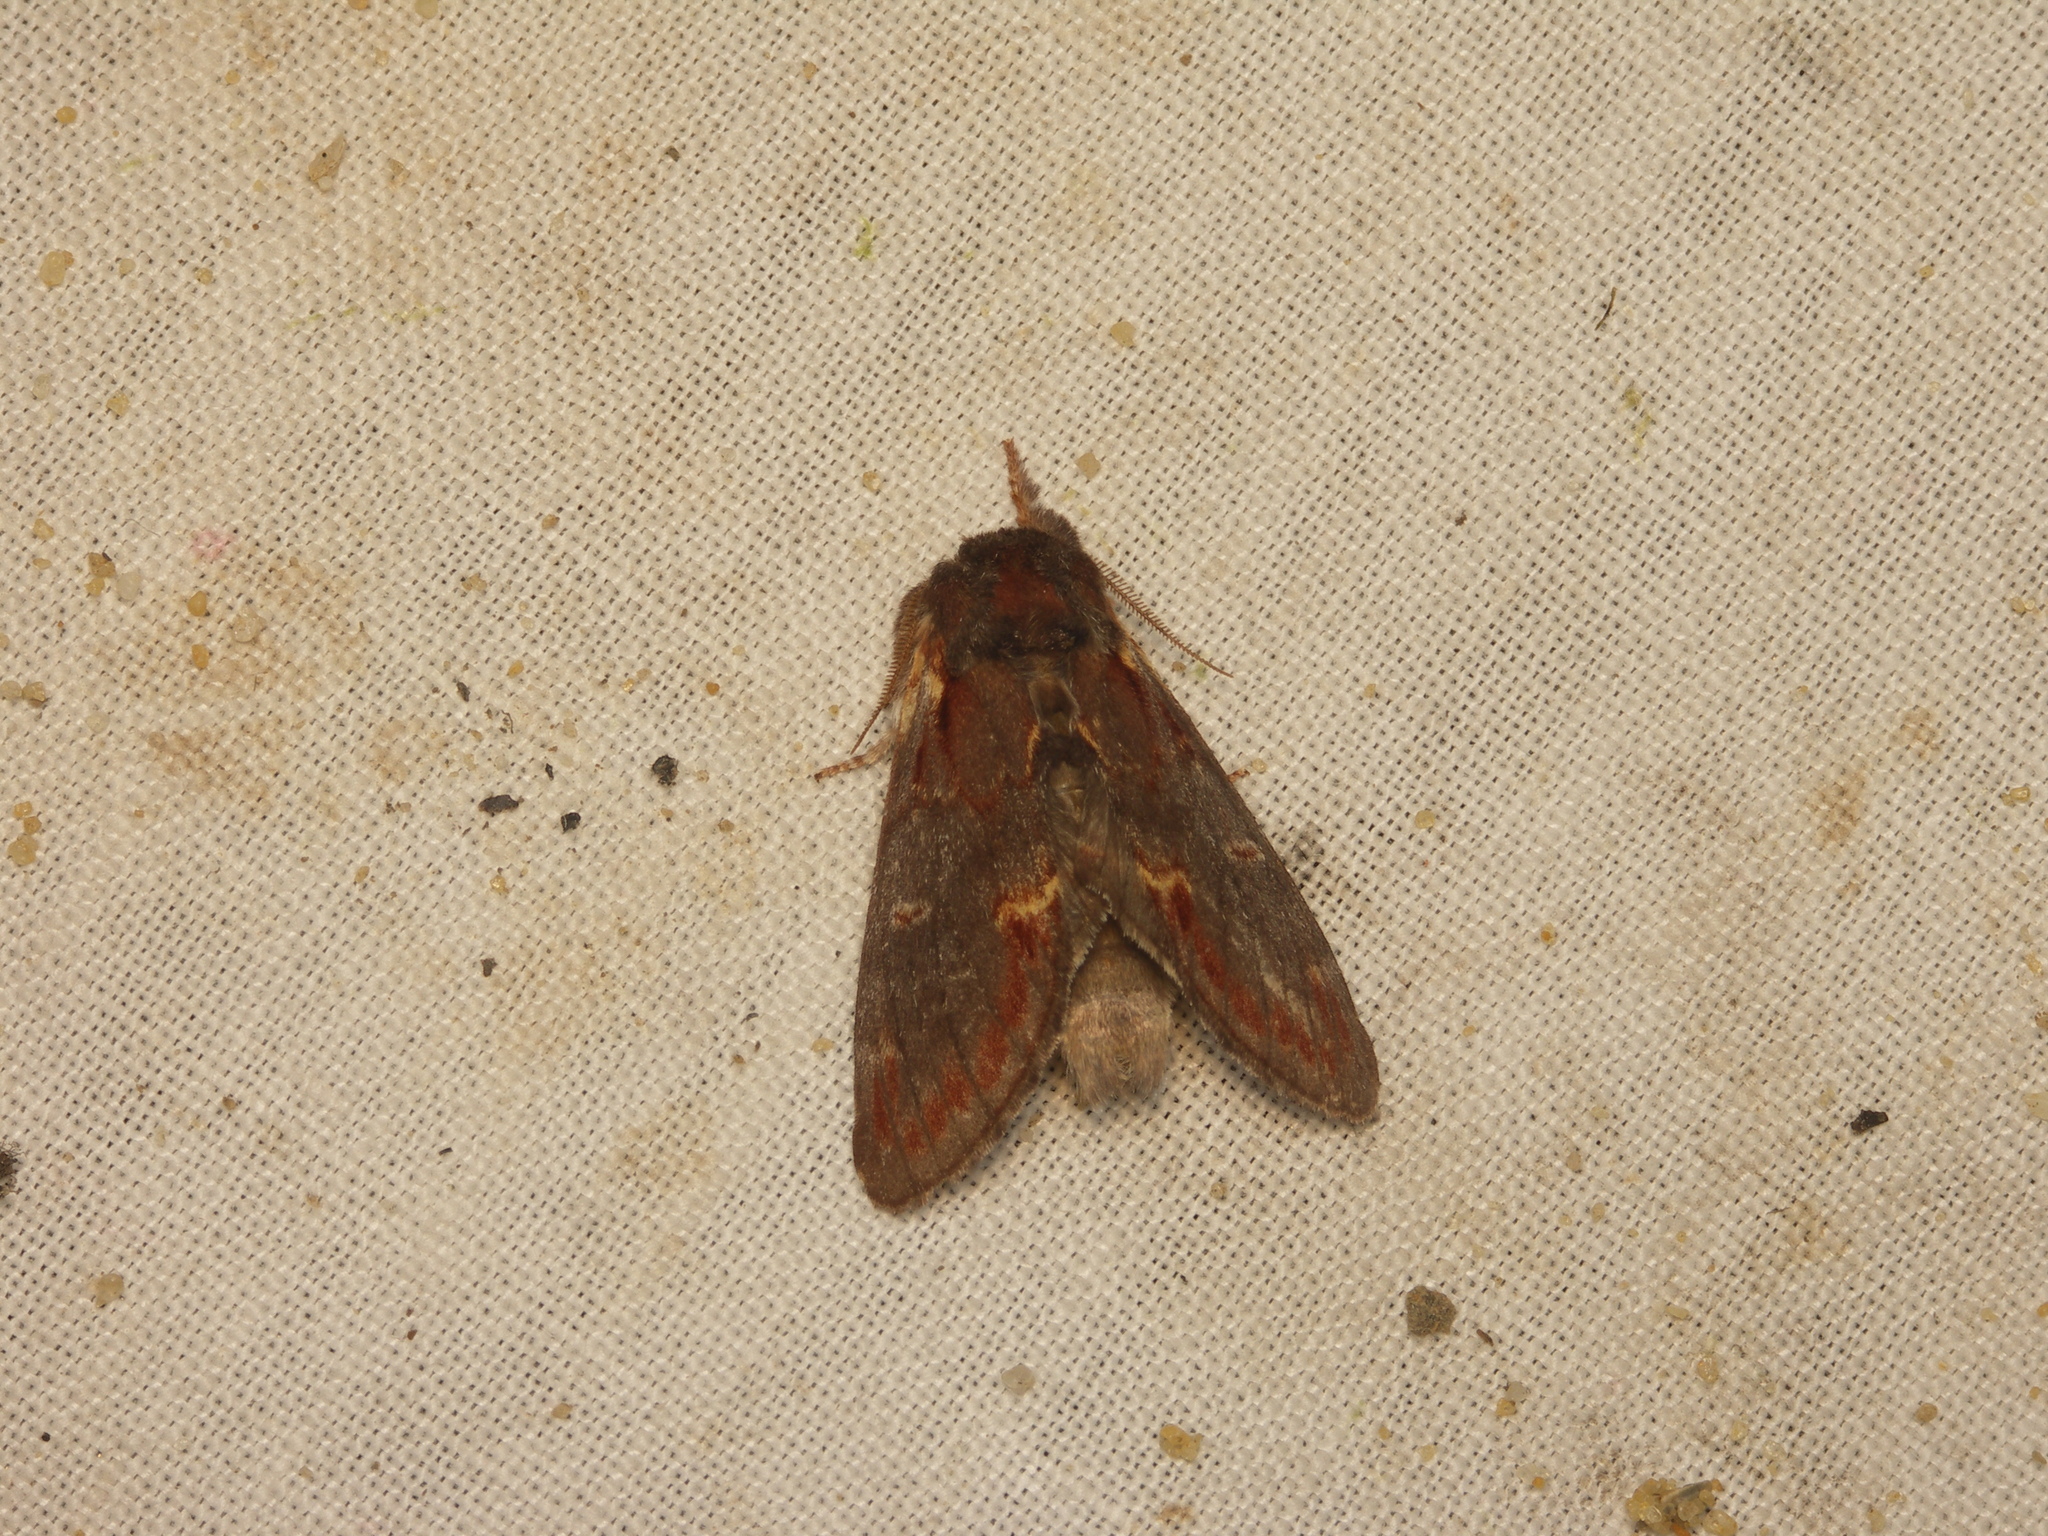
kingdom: Animalia
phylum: Arthropoda
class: Insecta
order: Lepidoptera
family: Notodontidae
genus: Notodonta
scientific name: Notodonta dromedarius
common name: Iron prominent
